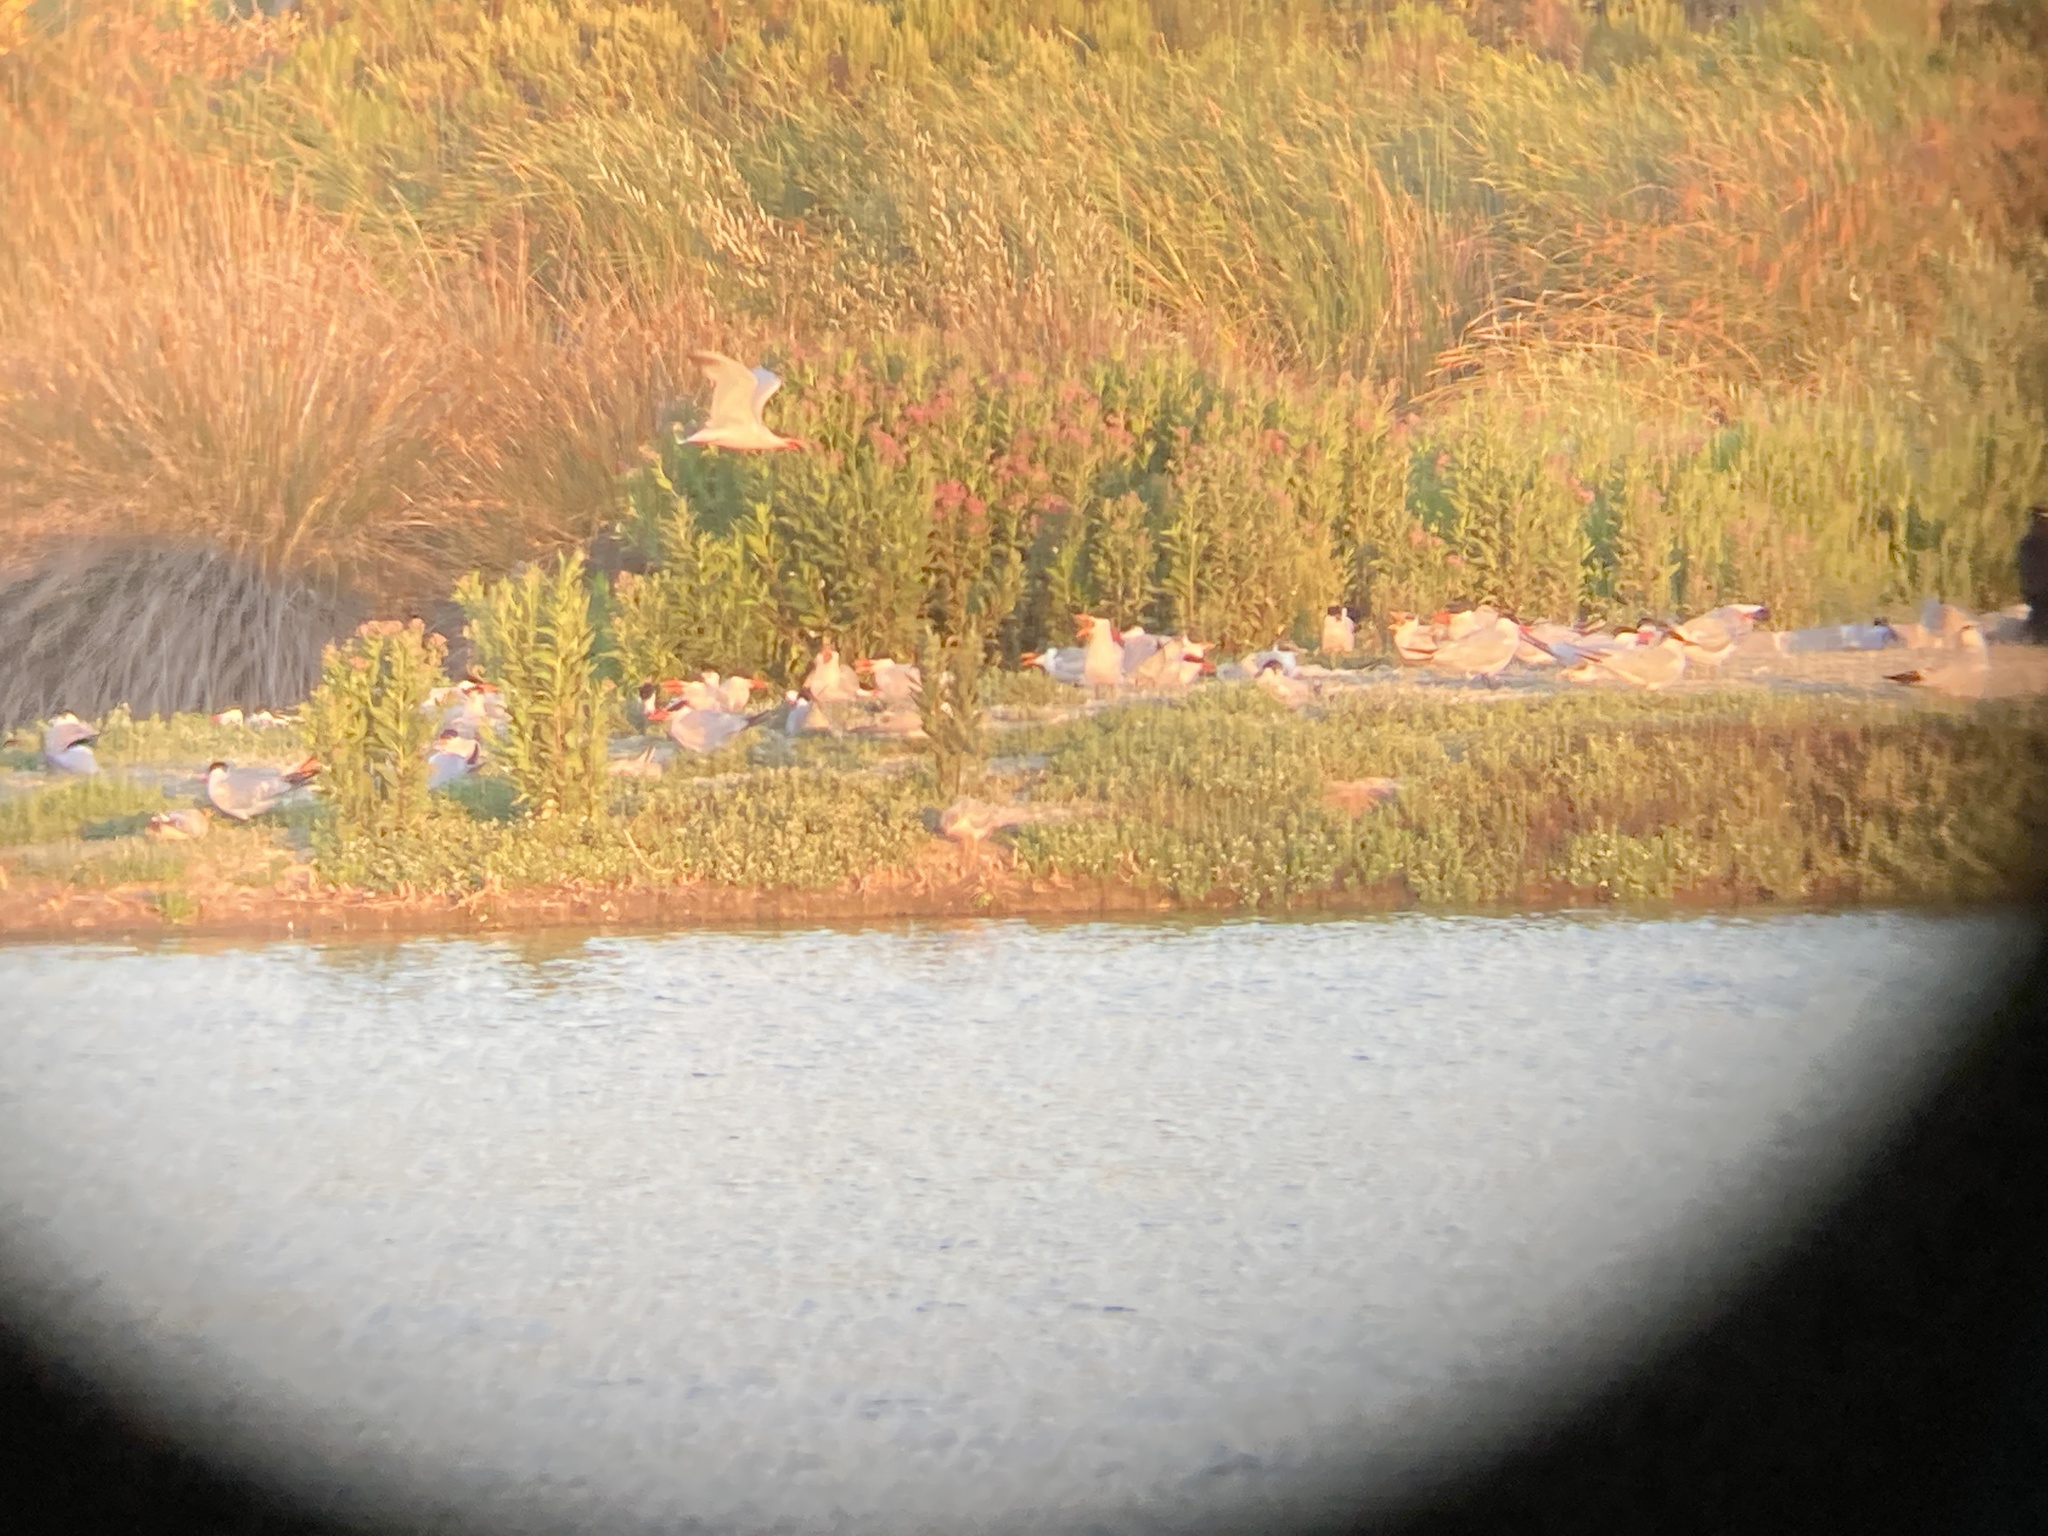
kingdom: Animalia
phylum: Chordata
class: Aves
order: Charadriiformes
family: Laridae
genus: Hydroprogne
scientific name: Hydroprogne caspia
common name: Caspian tern
